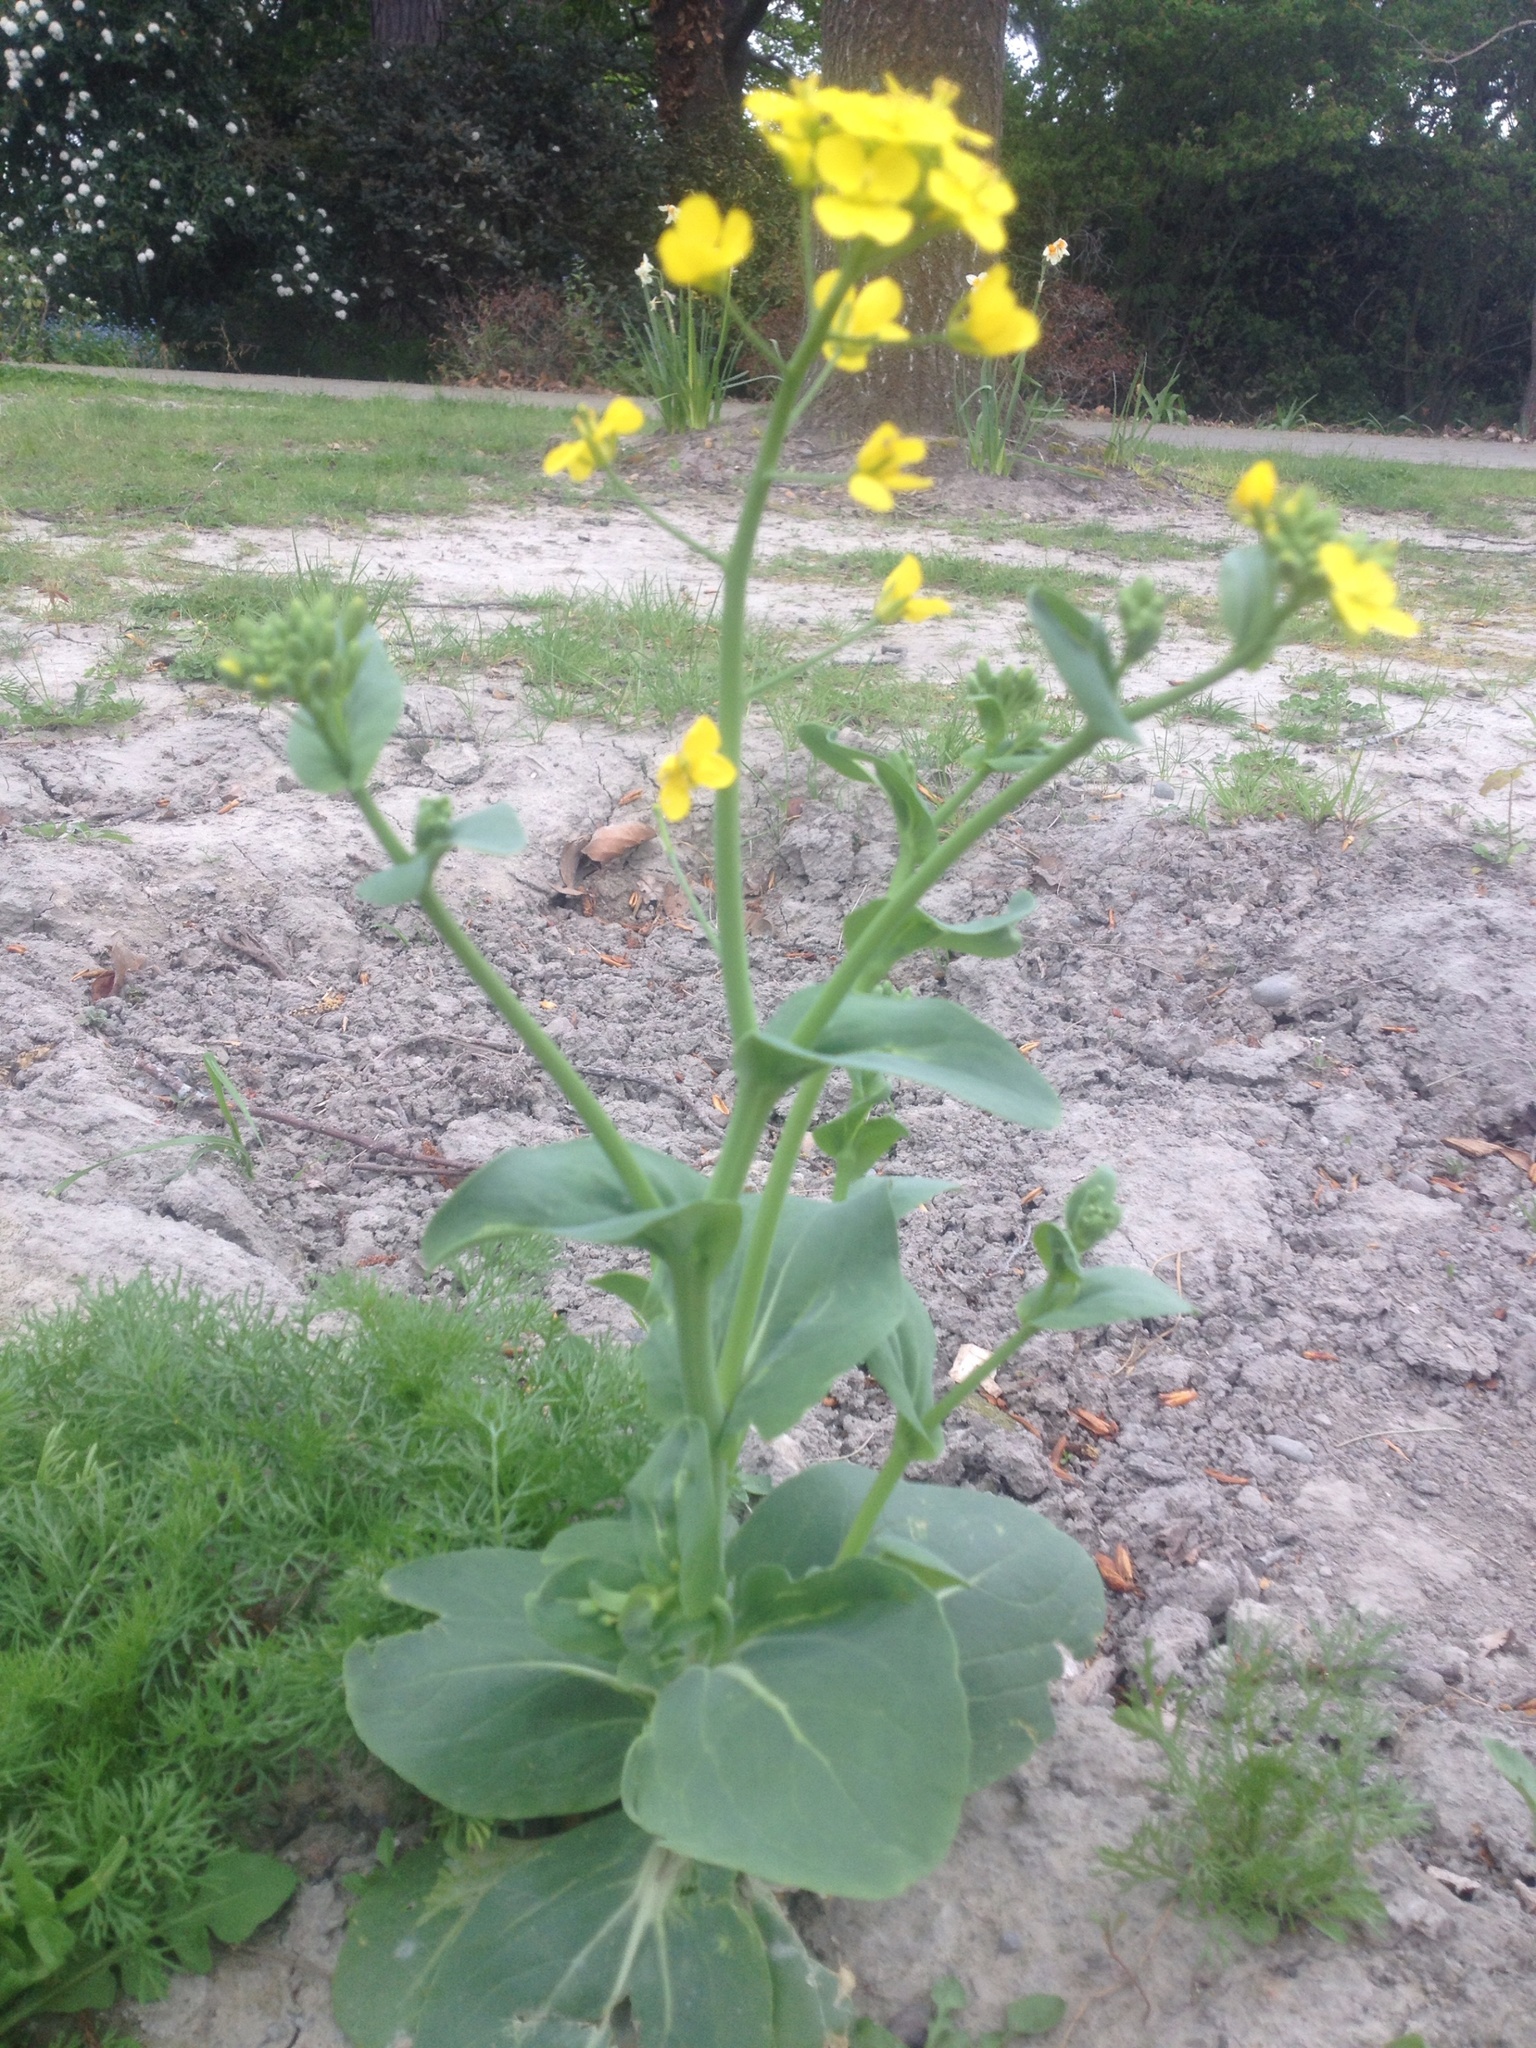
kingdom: Plantae
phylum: Tracheophyta
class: Magnoliopsida
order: Brassicales
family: Brassicaceae
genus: Brassica
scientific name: Brassica rapa
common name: Field mustard
